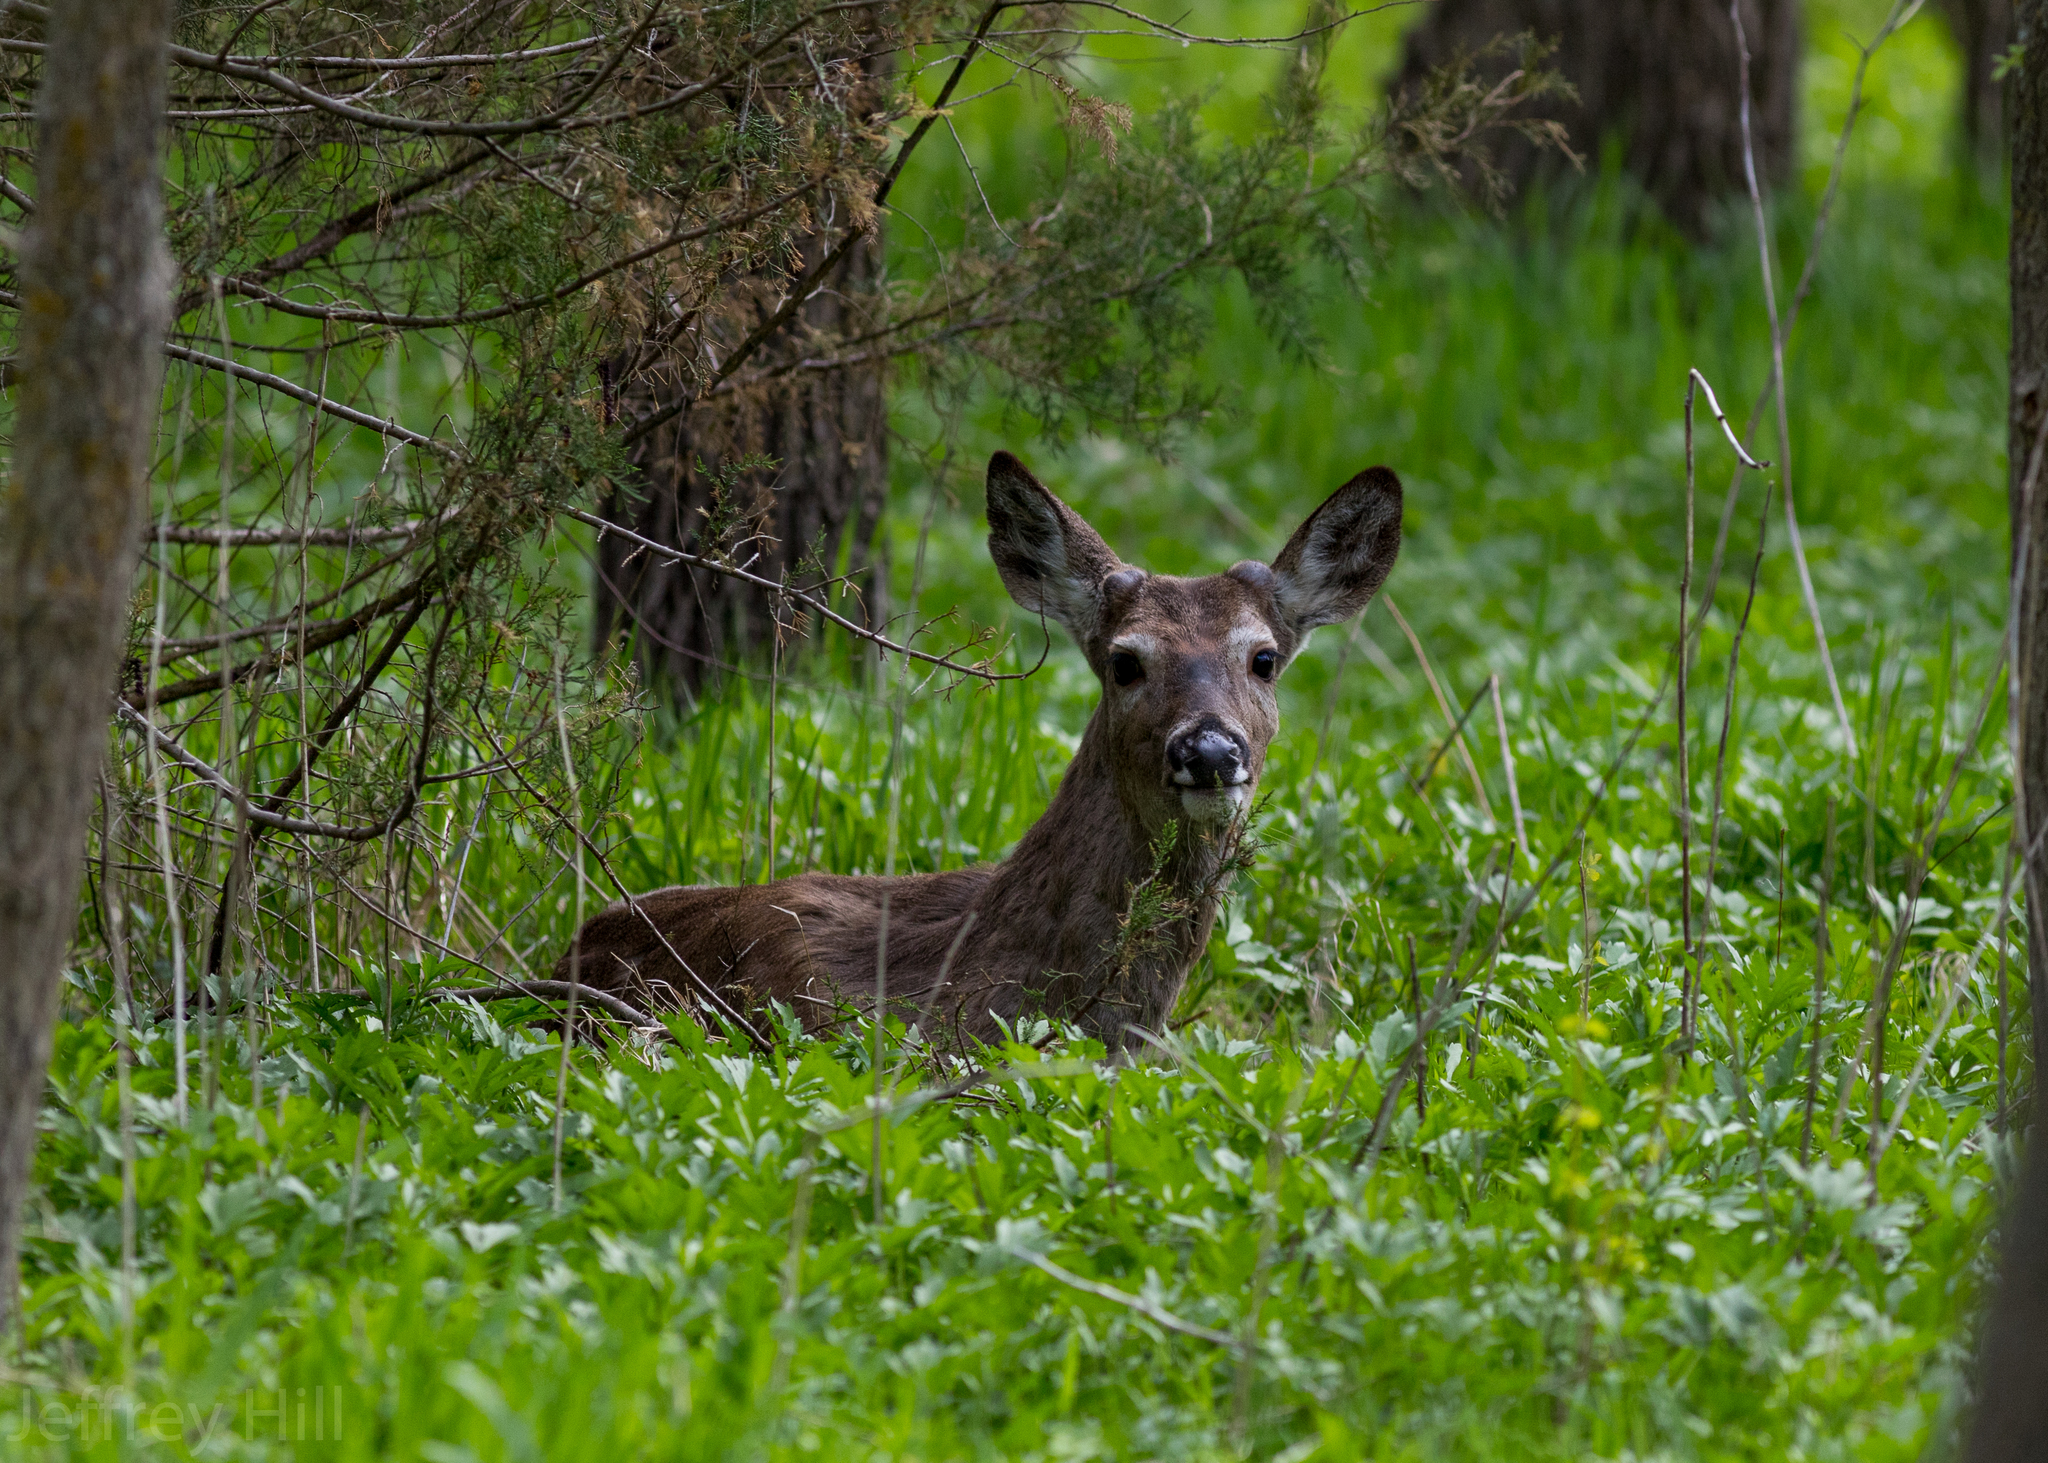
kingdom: Animalia
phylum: Chordata
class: Mammalia
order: Artiodactyla
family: Cervidae
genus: Odocoileus
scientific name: Odocoileus virginianus
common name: White-tailed deer
